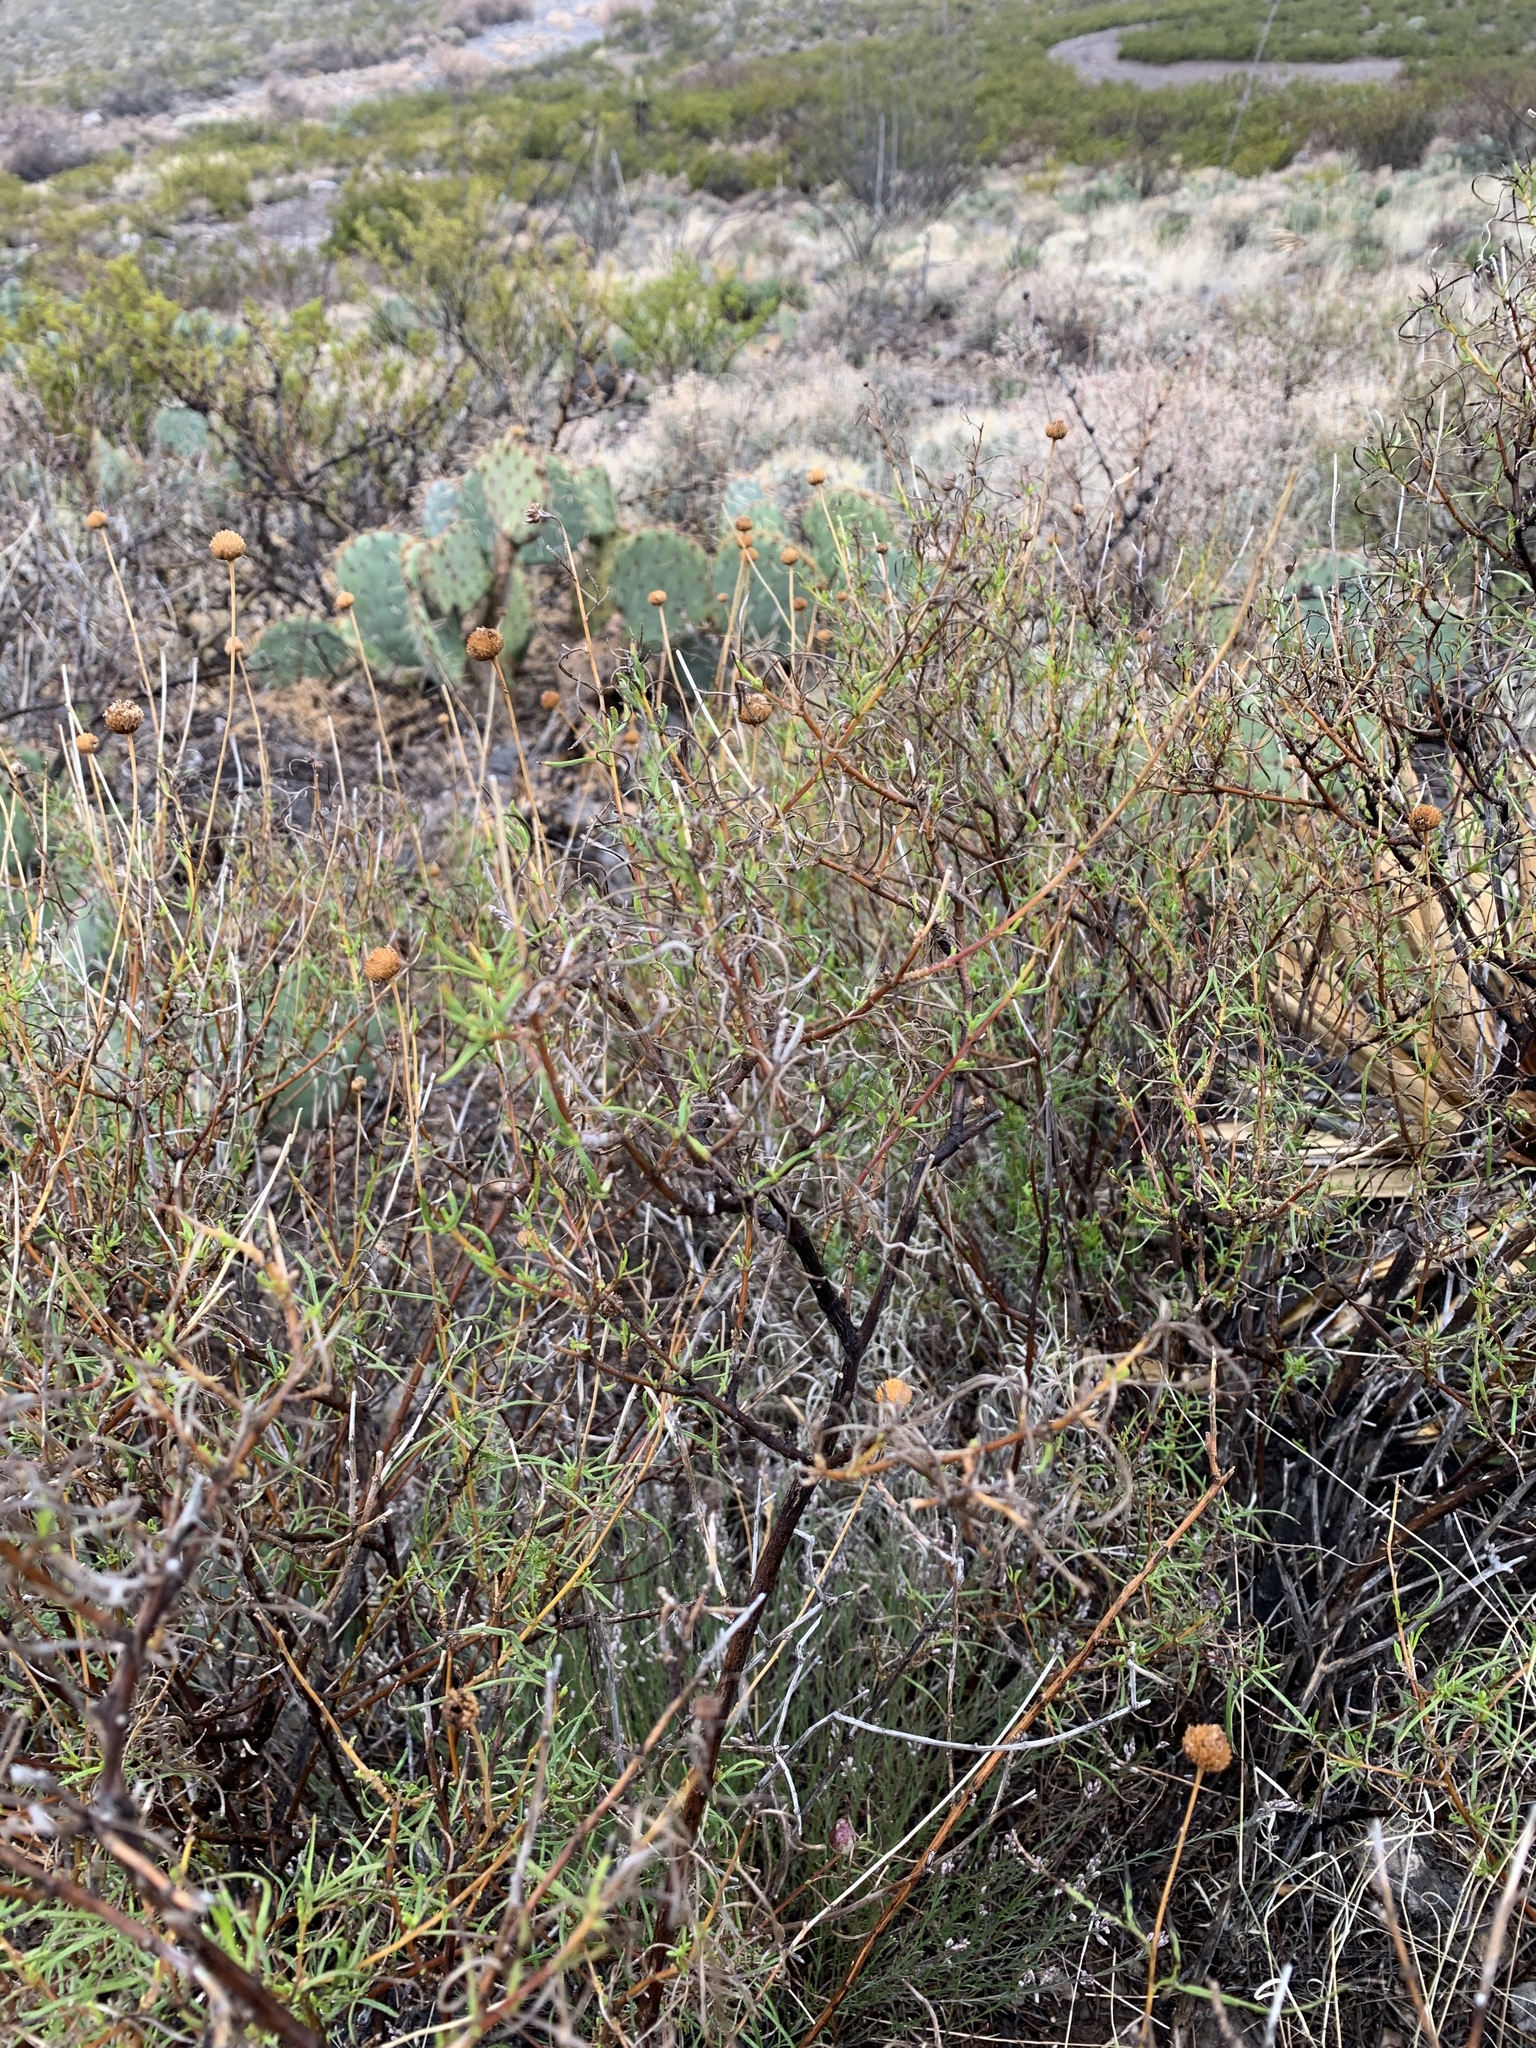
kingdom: Plantae
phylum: Tracheophyta
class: Magnoliopsida
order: Asterales
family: Asteraceae
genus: Sidneya
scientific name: Sidneya tenuifolia
